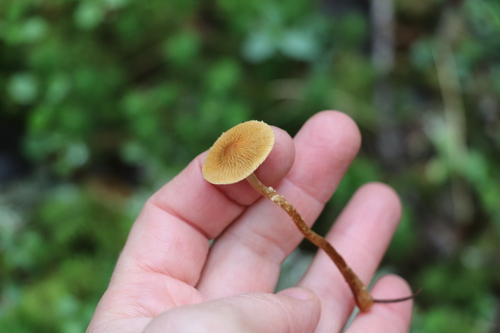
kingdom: Fungi
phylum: Basidiomycota
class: Agaricomycetes
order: Agaricales
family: Tricholomataceae
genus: Cystoderma
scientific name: Cystoderma amianthinum
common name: Earthy powdercap
